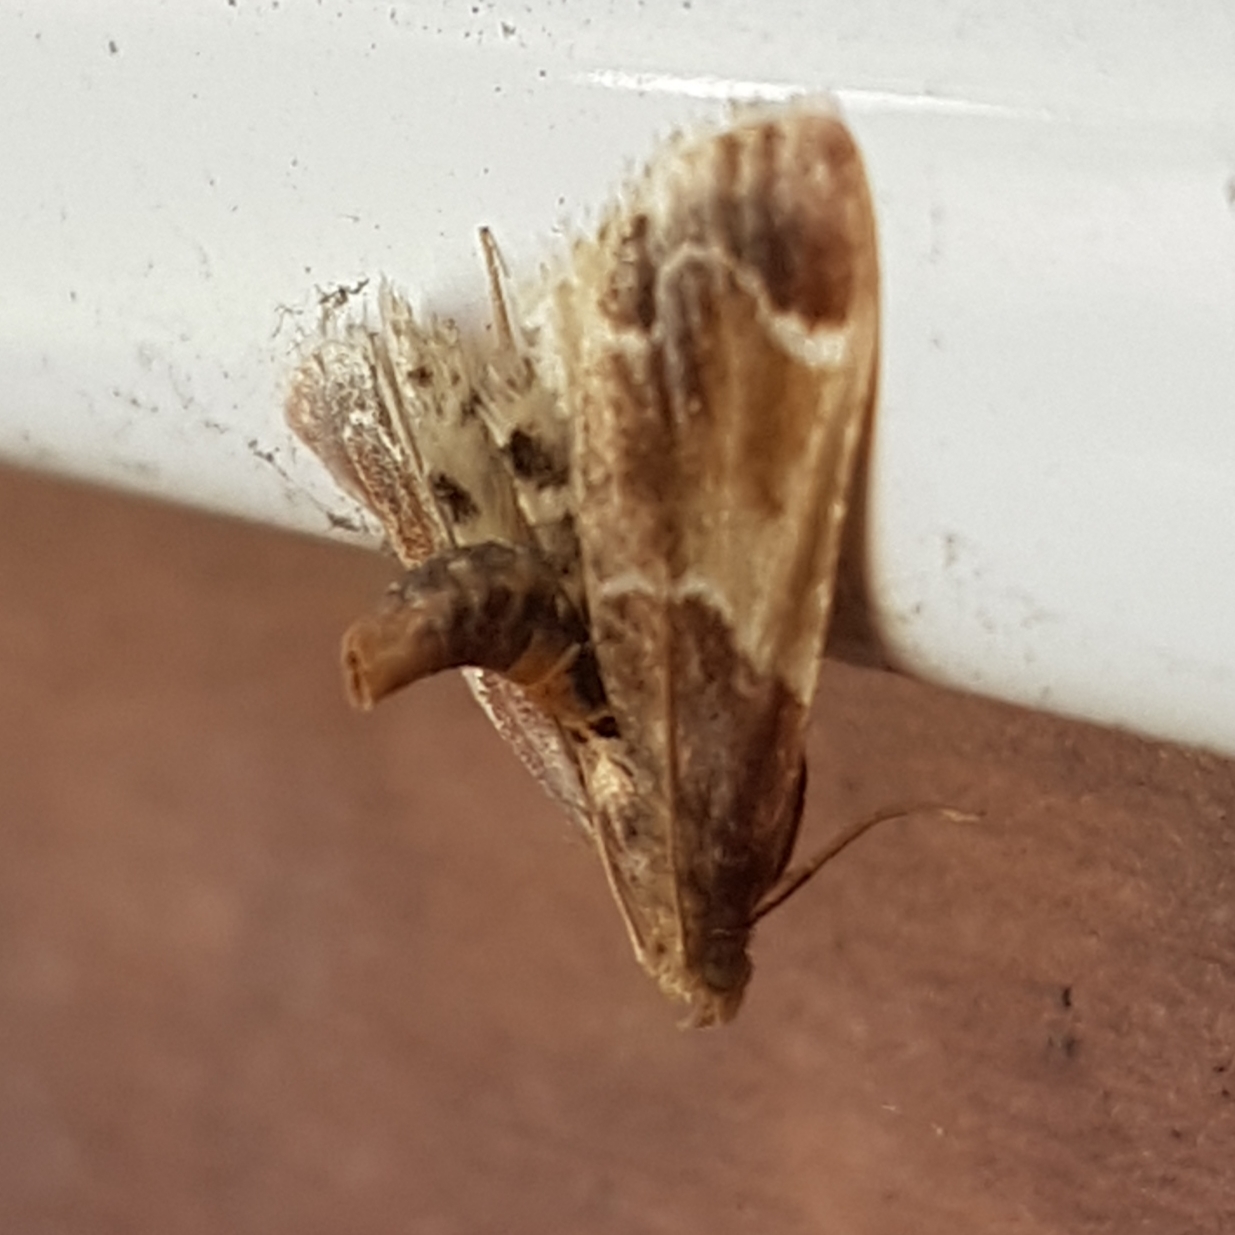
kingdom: Animalia
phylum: Arthropoda
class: Insecta
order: Lepidoptera
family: Pyralidae
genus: Pyralis
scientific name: Pyralis farinalis
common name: Meal moth
